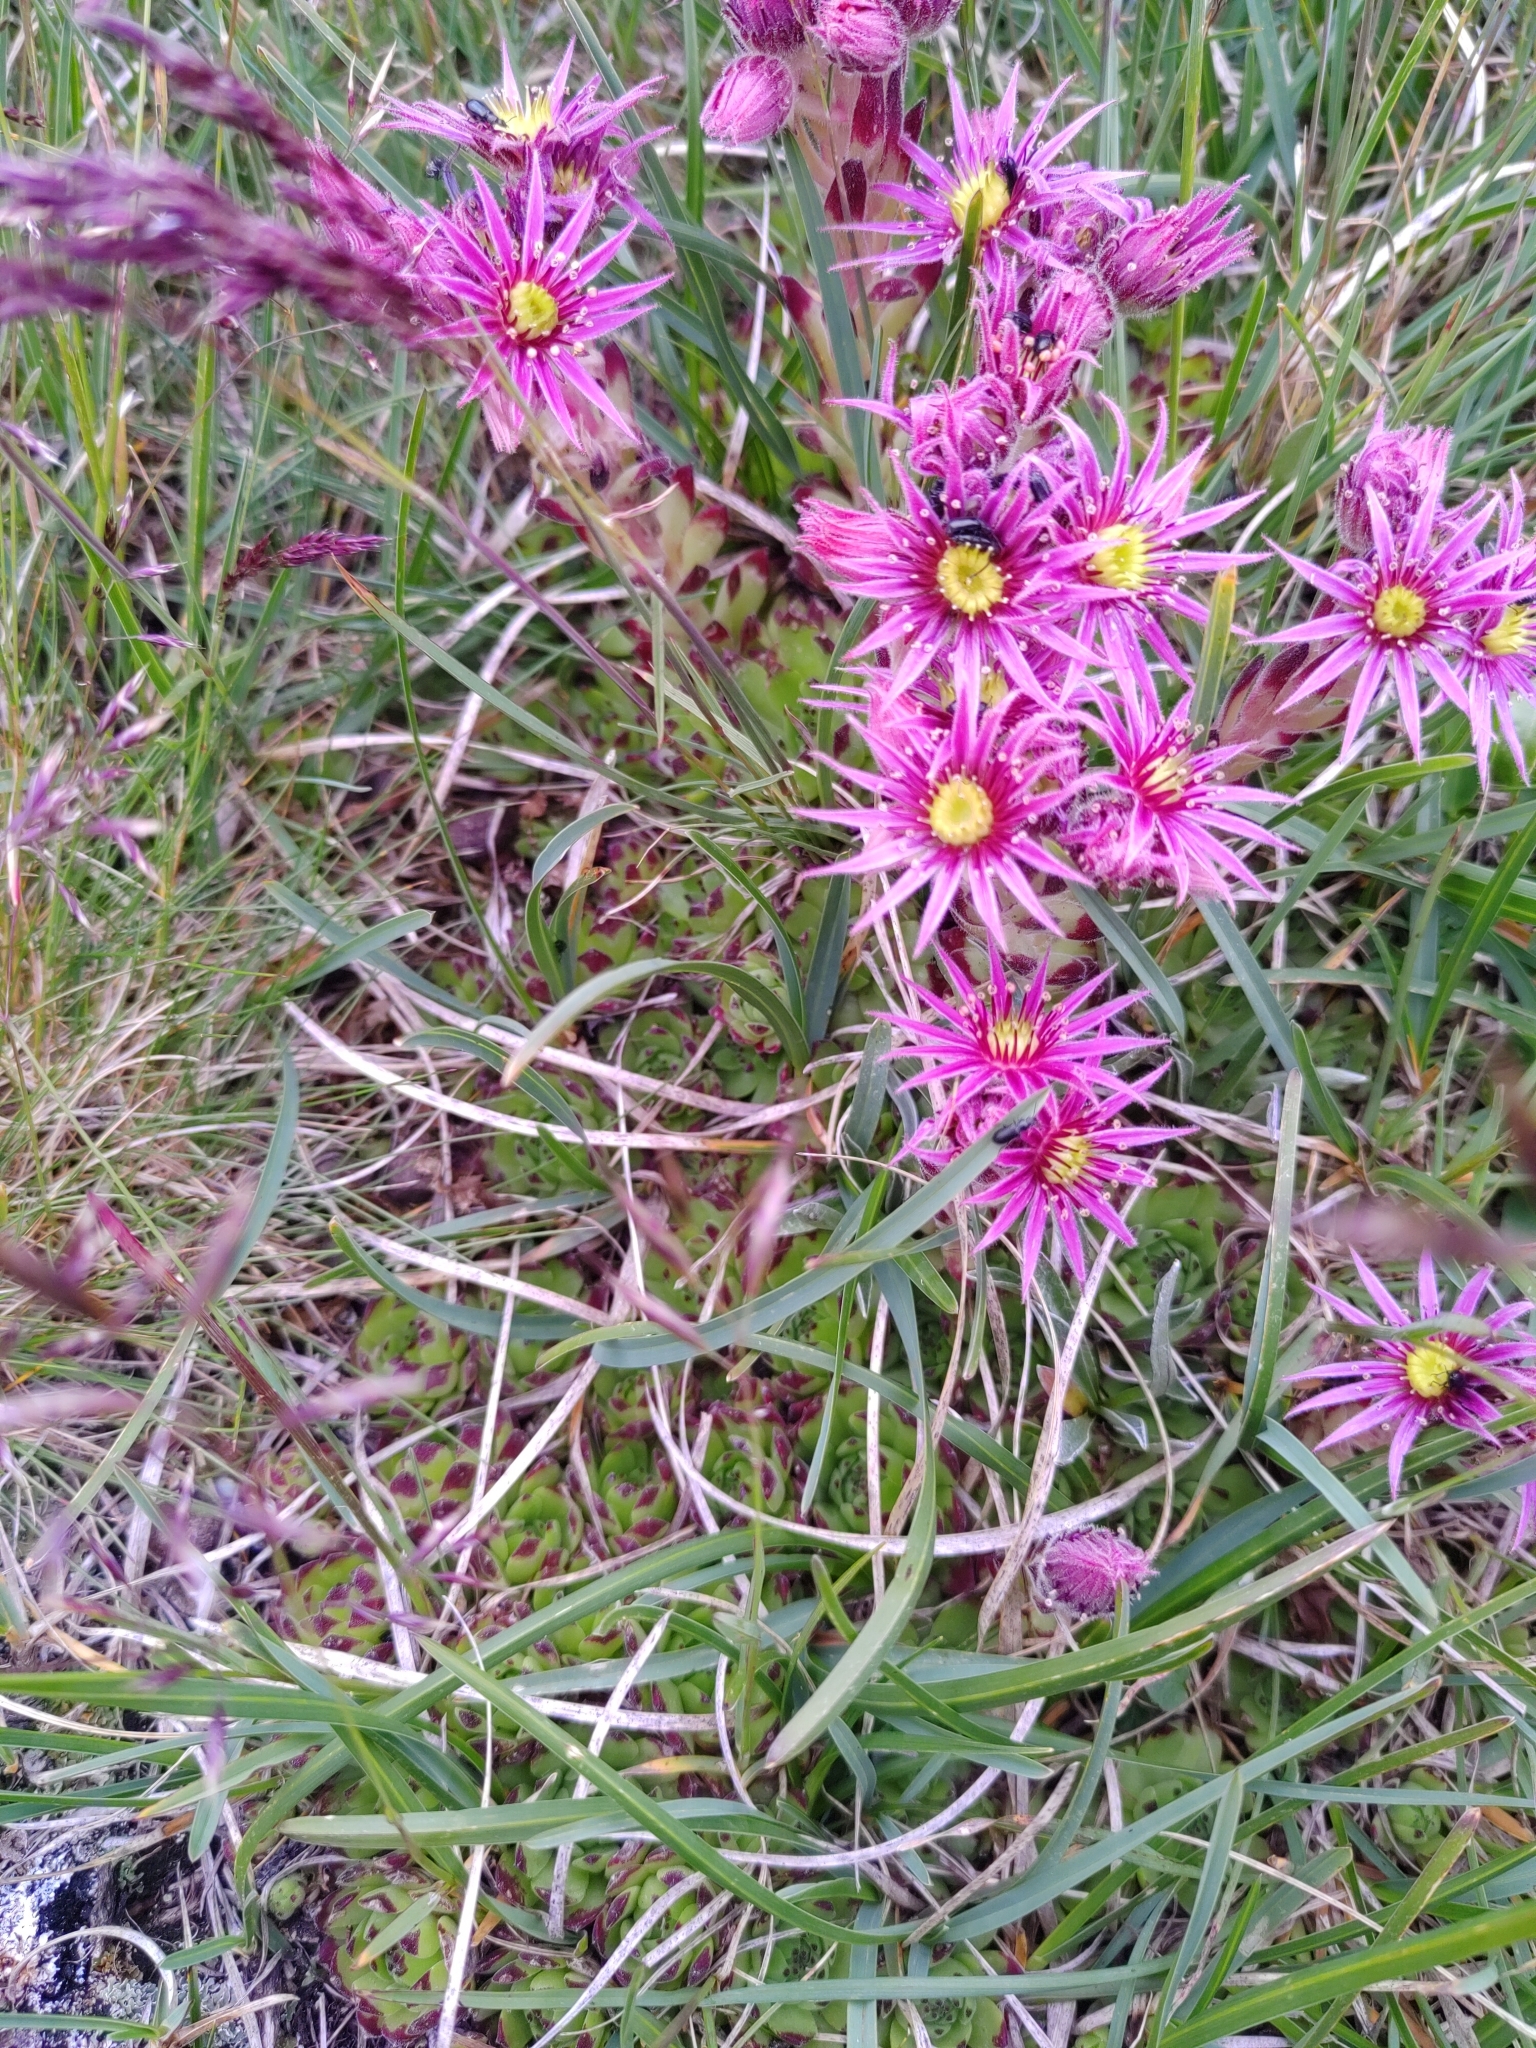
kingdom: Plantae
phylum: Tracheophyta
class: Magnoliopsida
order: Saxifragales
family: Crassulaceae
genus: Sempervivum
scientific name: Sempervivum montanum
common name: Mountain house-leek
